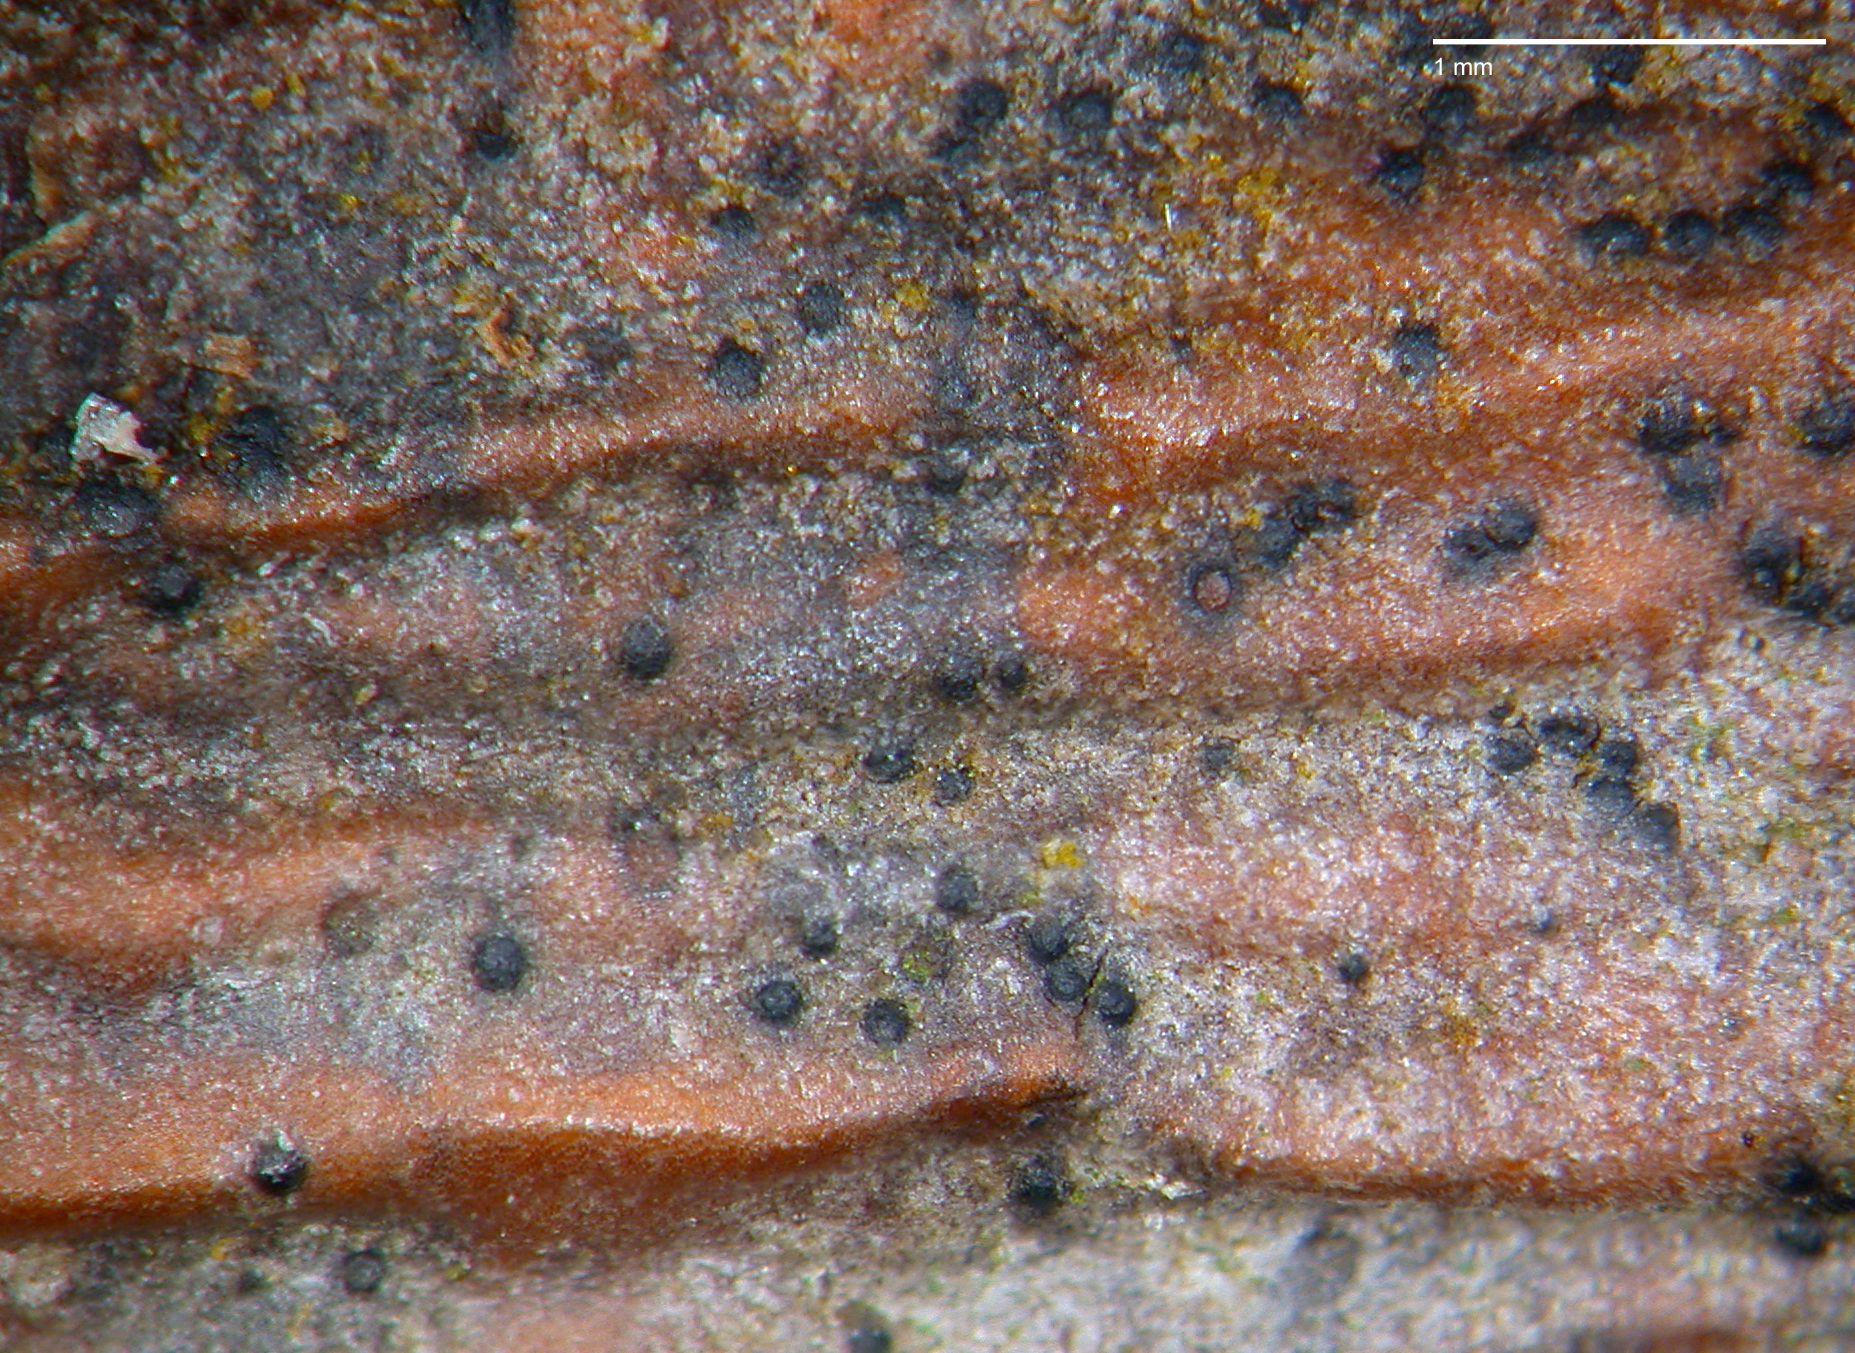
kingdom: Fungi
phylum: Ascomycota
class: Dothideomycetes
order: Capnodiales
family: Cladosporiaceae
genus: Cladosporium
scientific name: Cladosporium herbarum
